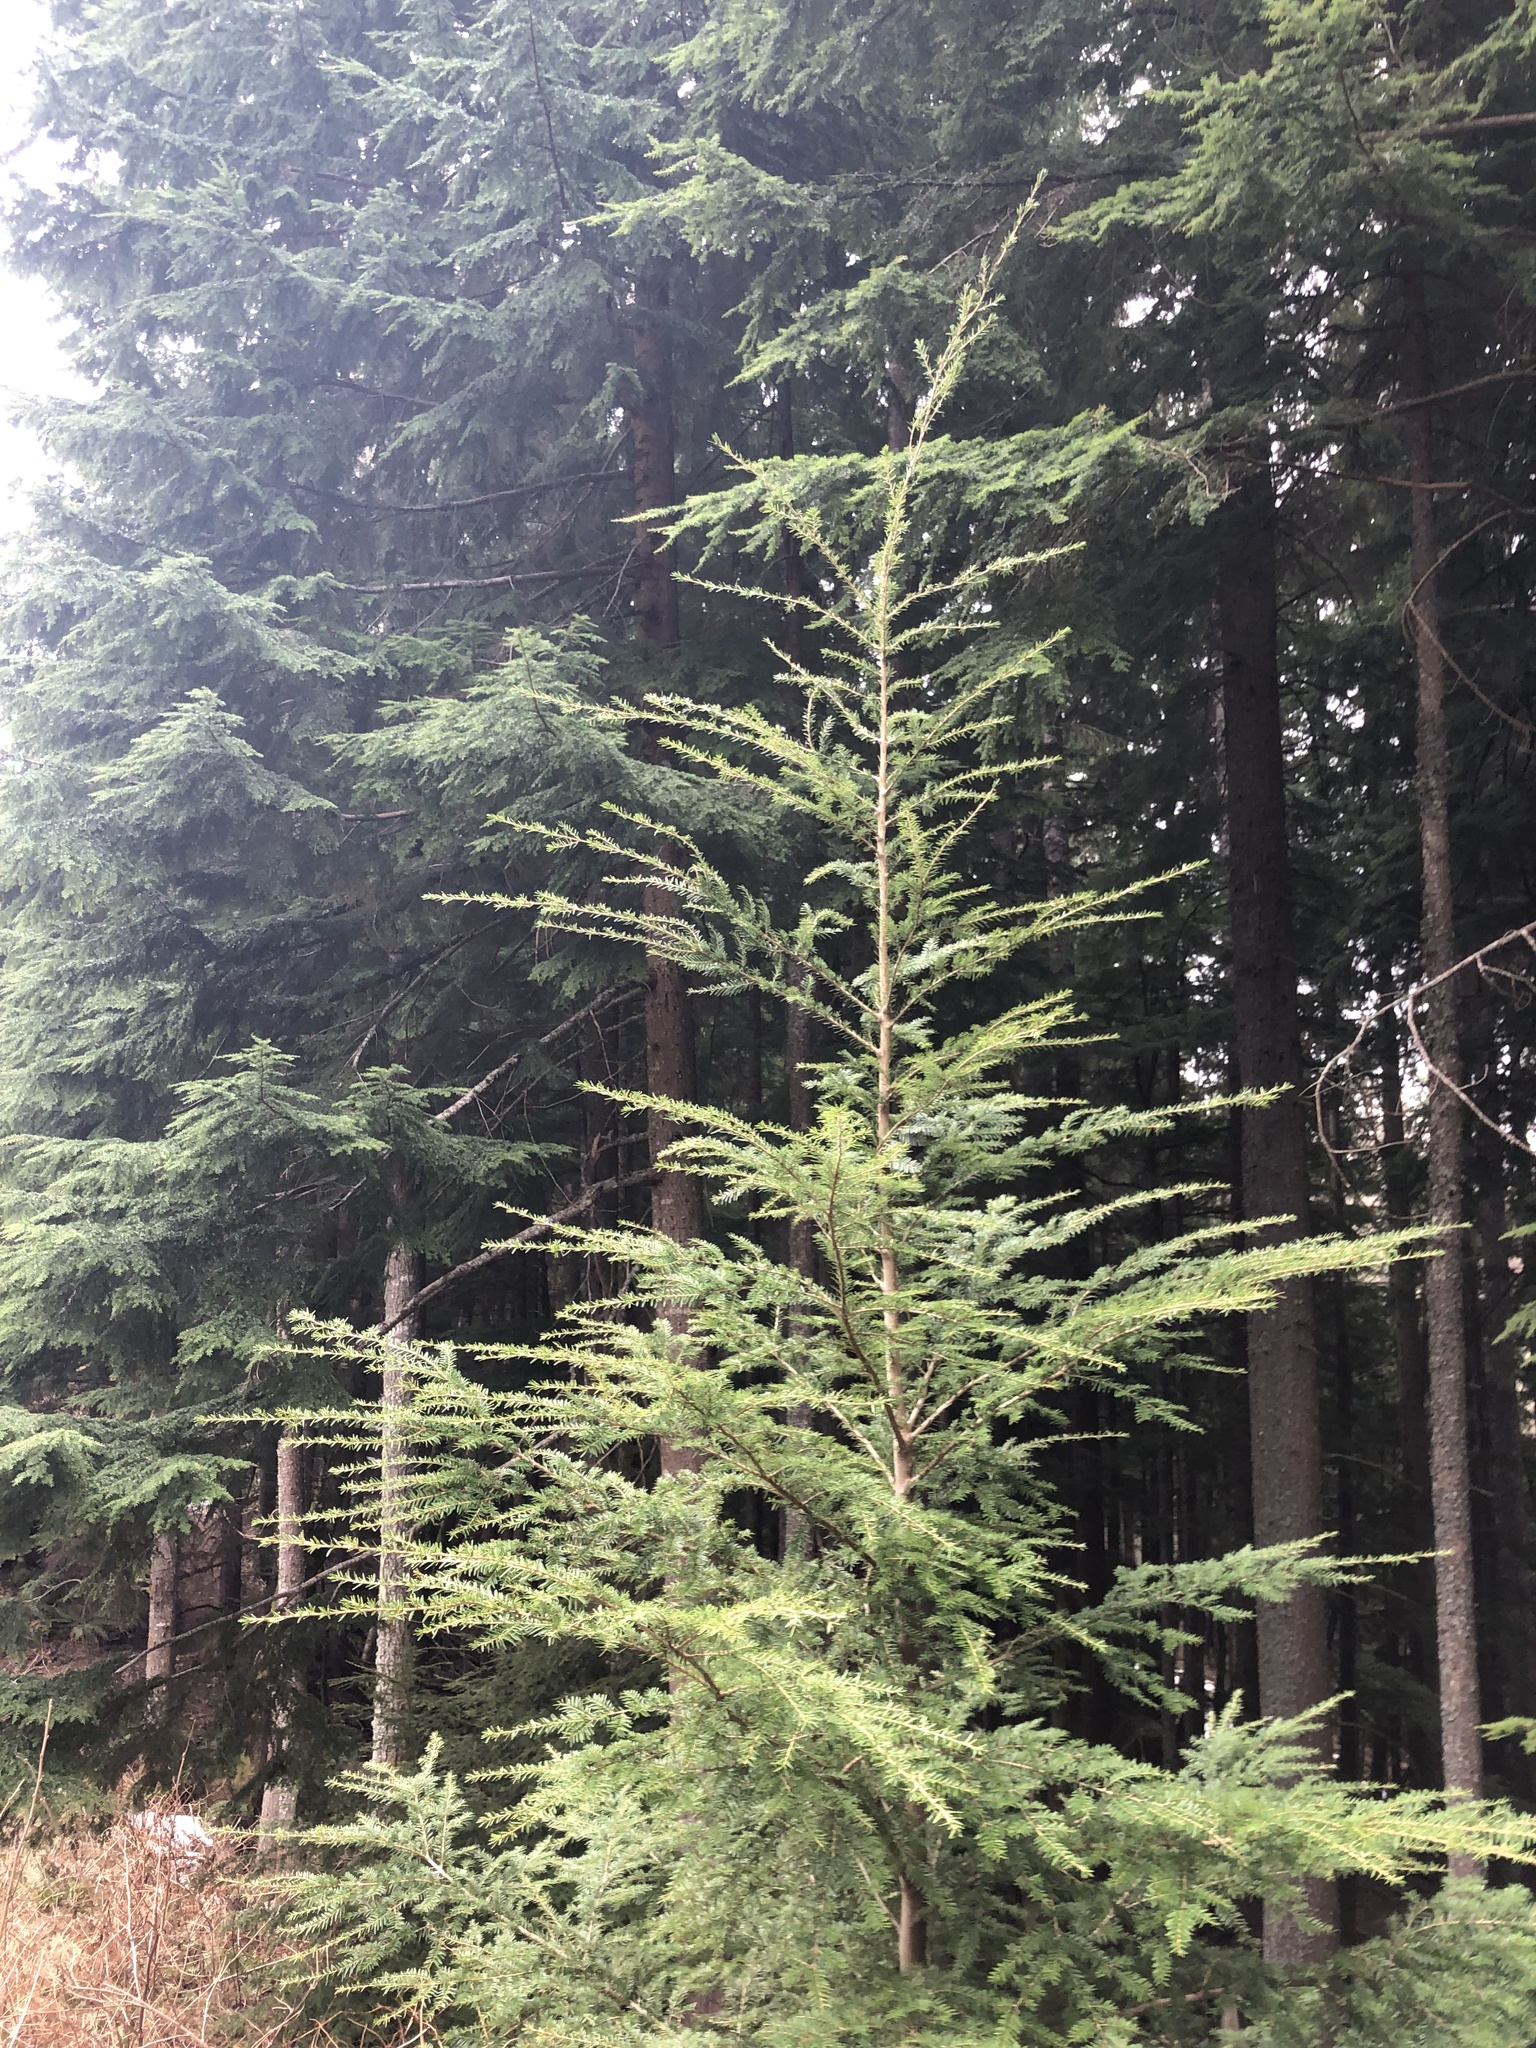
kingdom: Plantae
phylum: Tracheophyta
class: Pinopsida
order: Pinales
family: Pinaceae
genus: Tsuga
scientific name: Tsuga heterophylla
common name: Western hemlock
